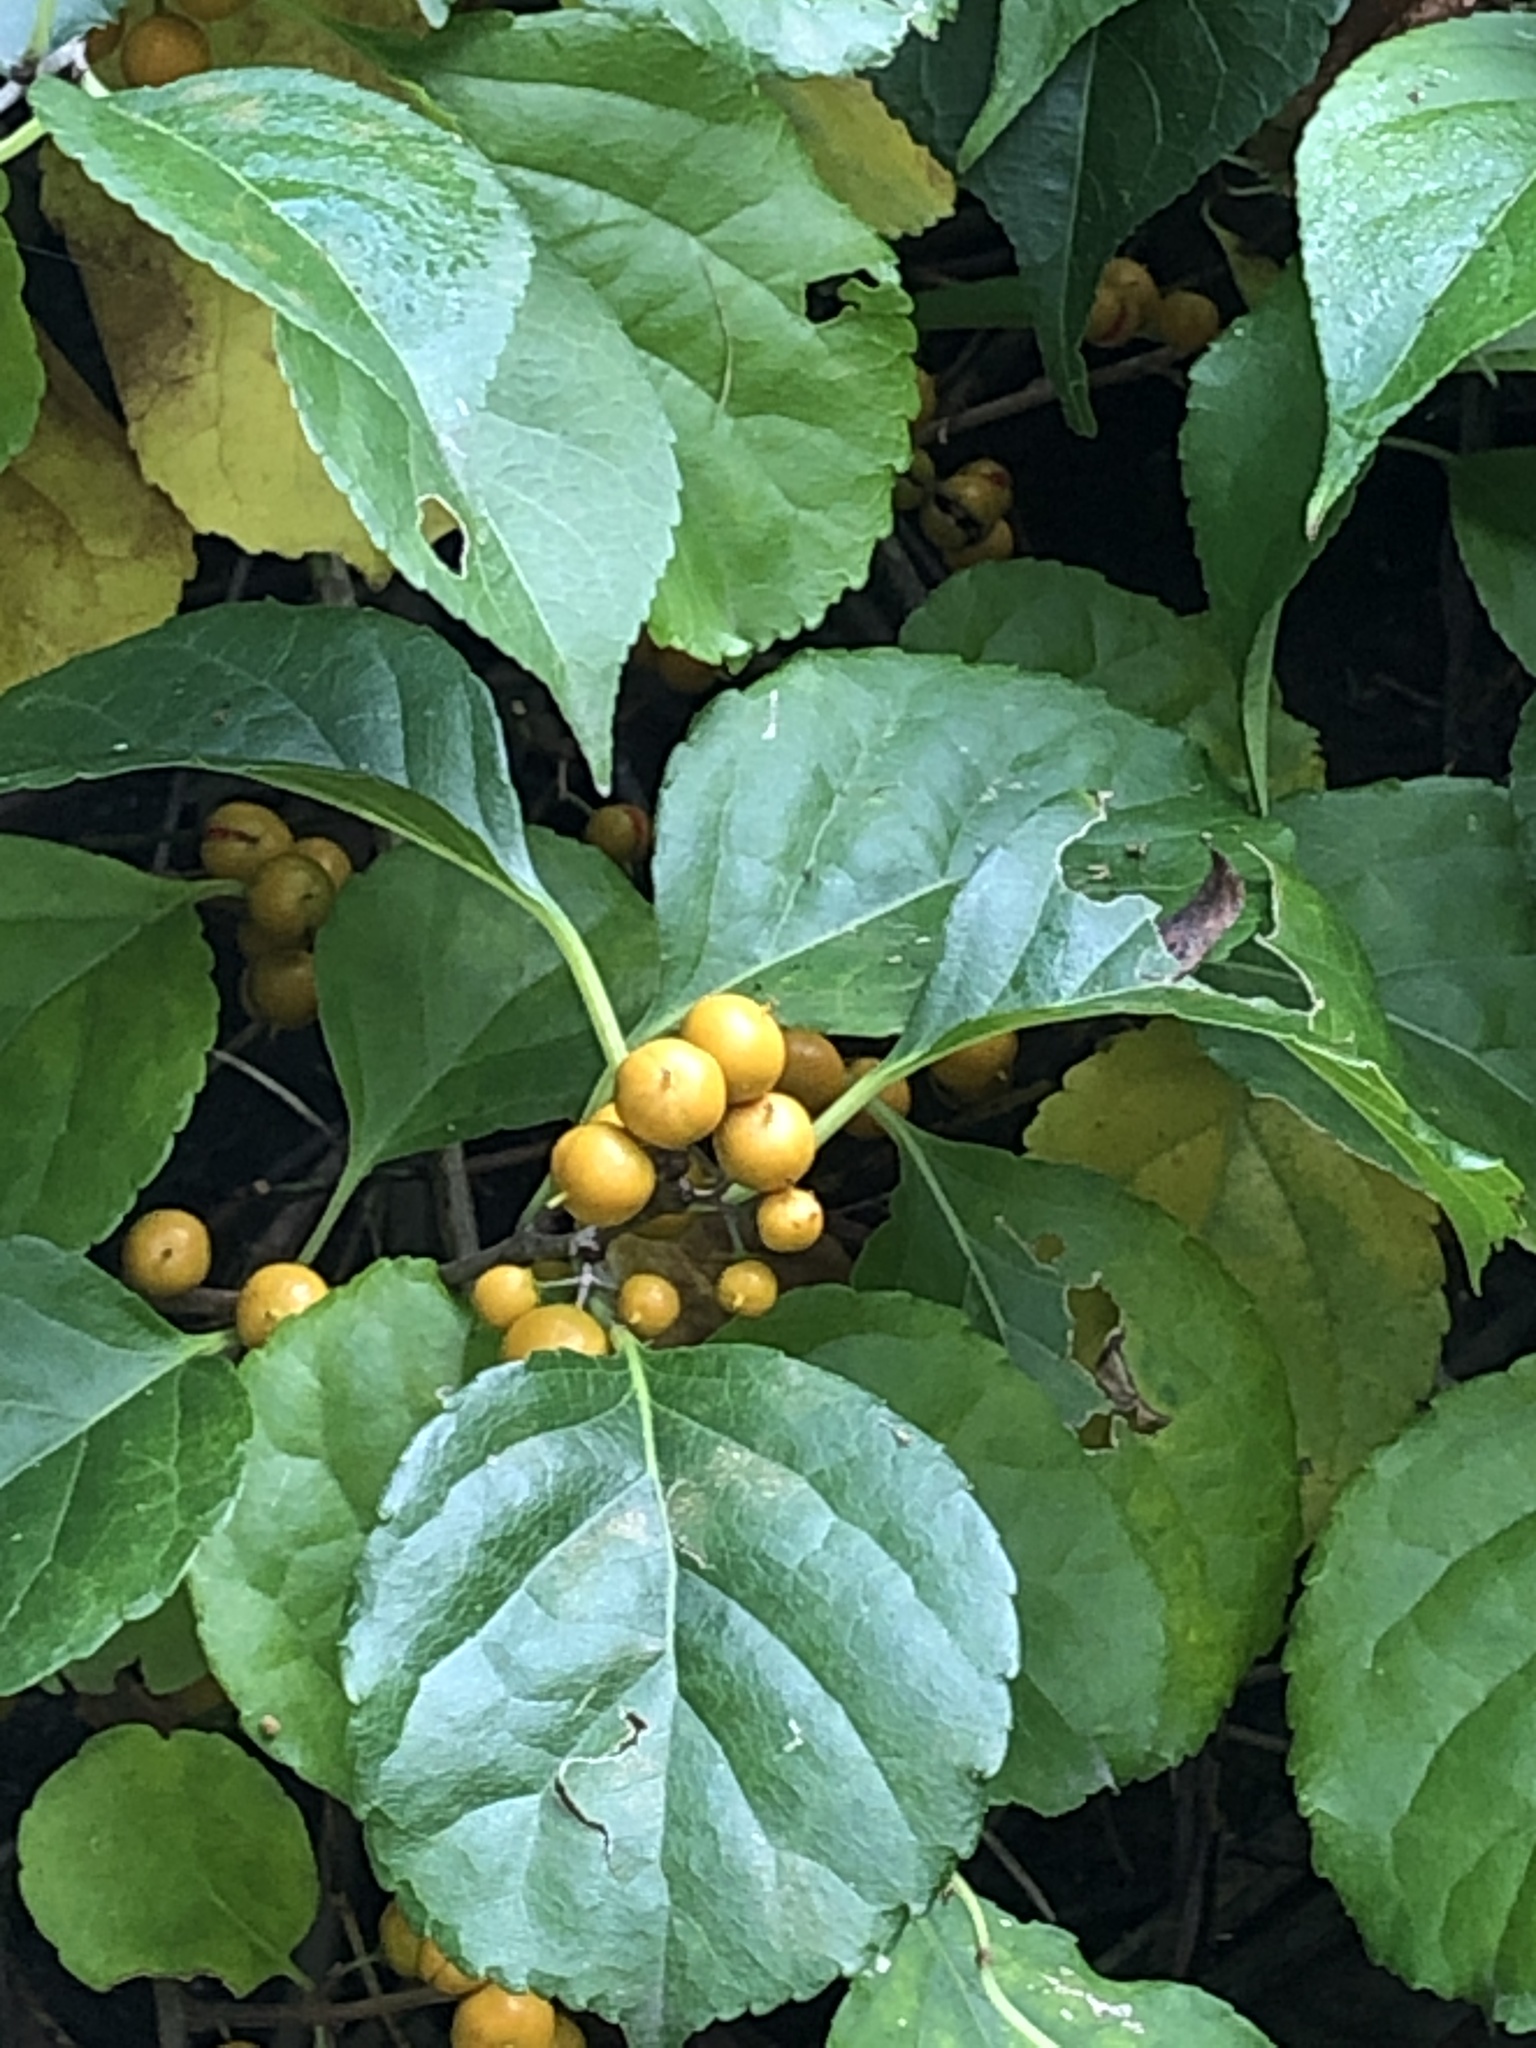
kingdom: Plantae
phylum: Tracheophyta
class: Magnoliopsida
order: Celastrales
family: Celastraceae
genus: Celastrus
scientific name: Celastrus orbiculatus
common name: Oriental bittersweet
